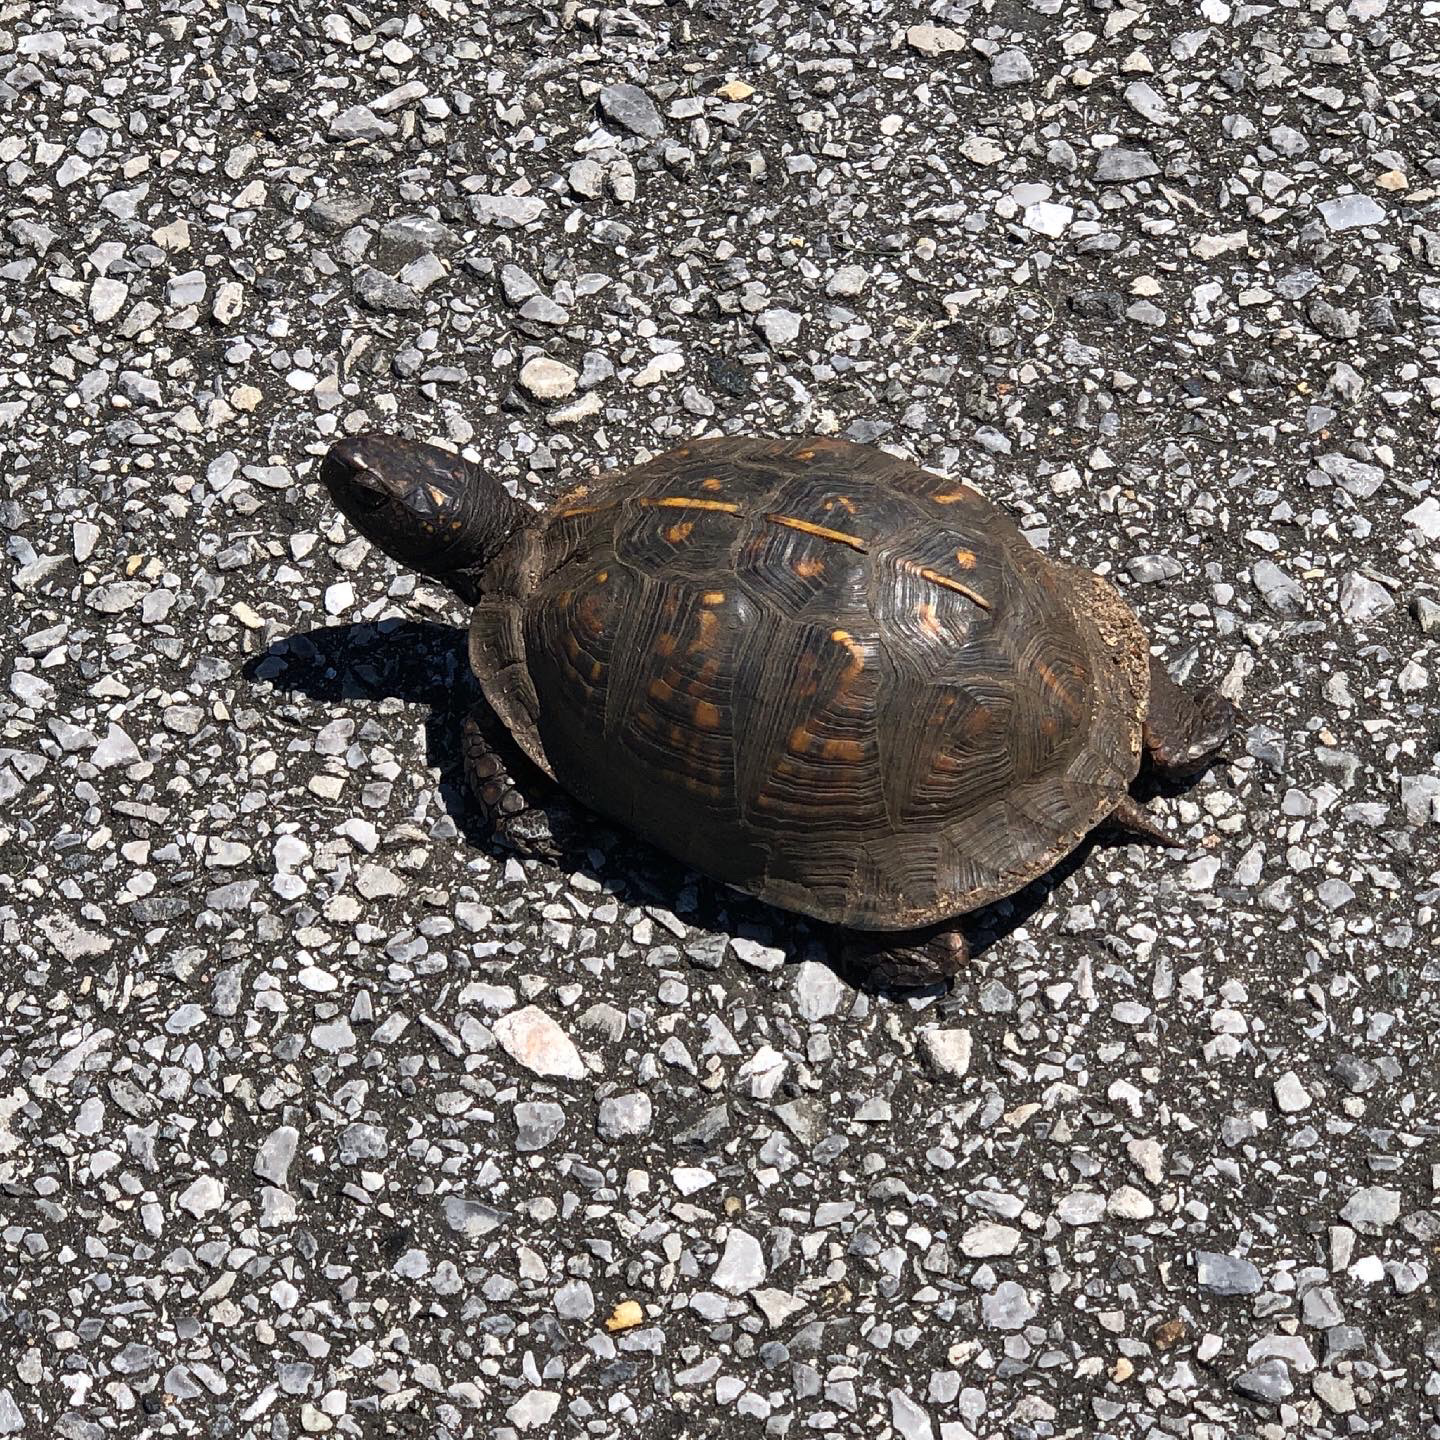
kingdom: Animalia
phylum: Chordata
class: Testudines
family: Emydidae
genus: Terrapene
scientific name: Terrapene carolina
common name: Common box turtle
